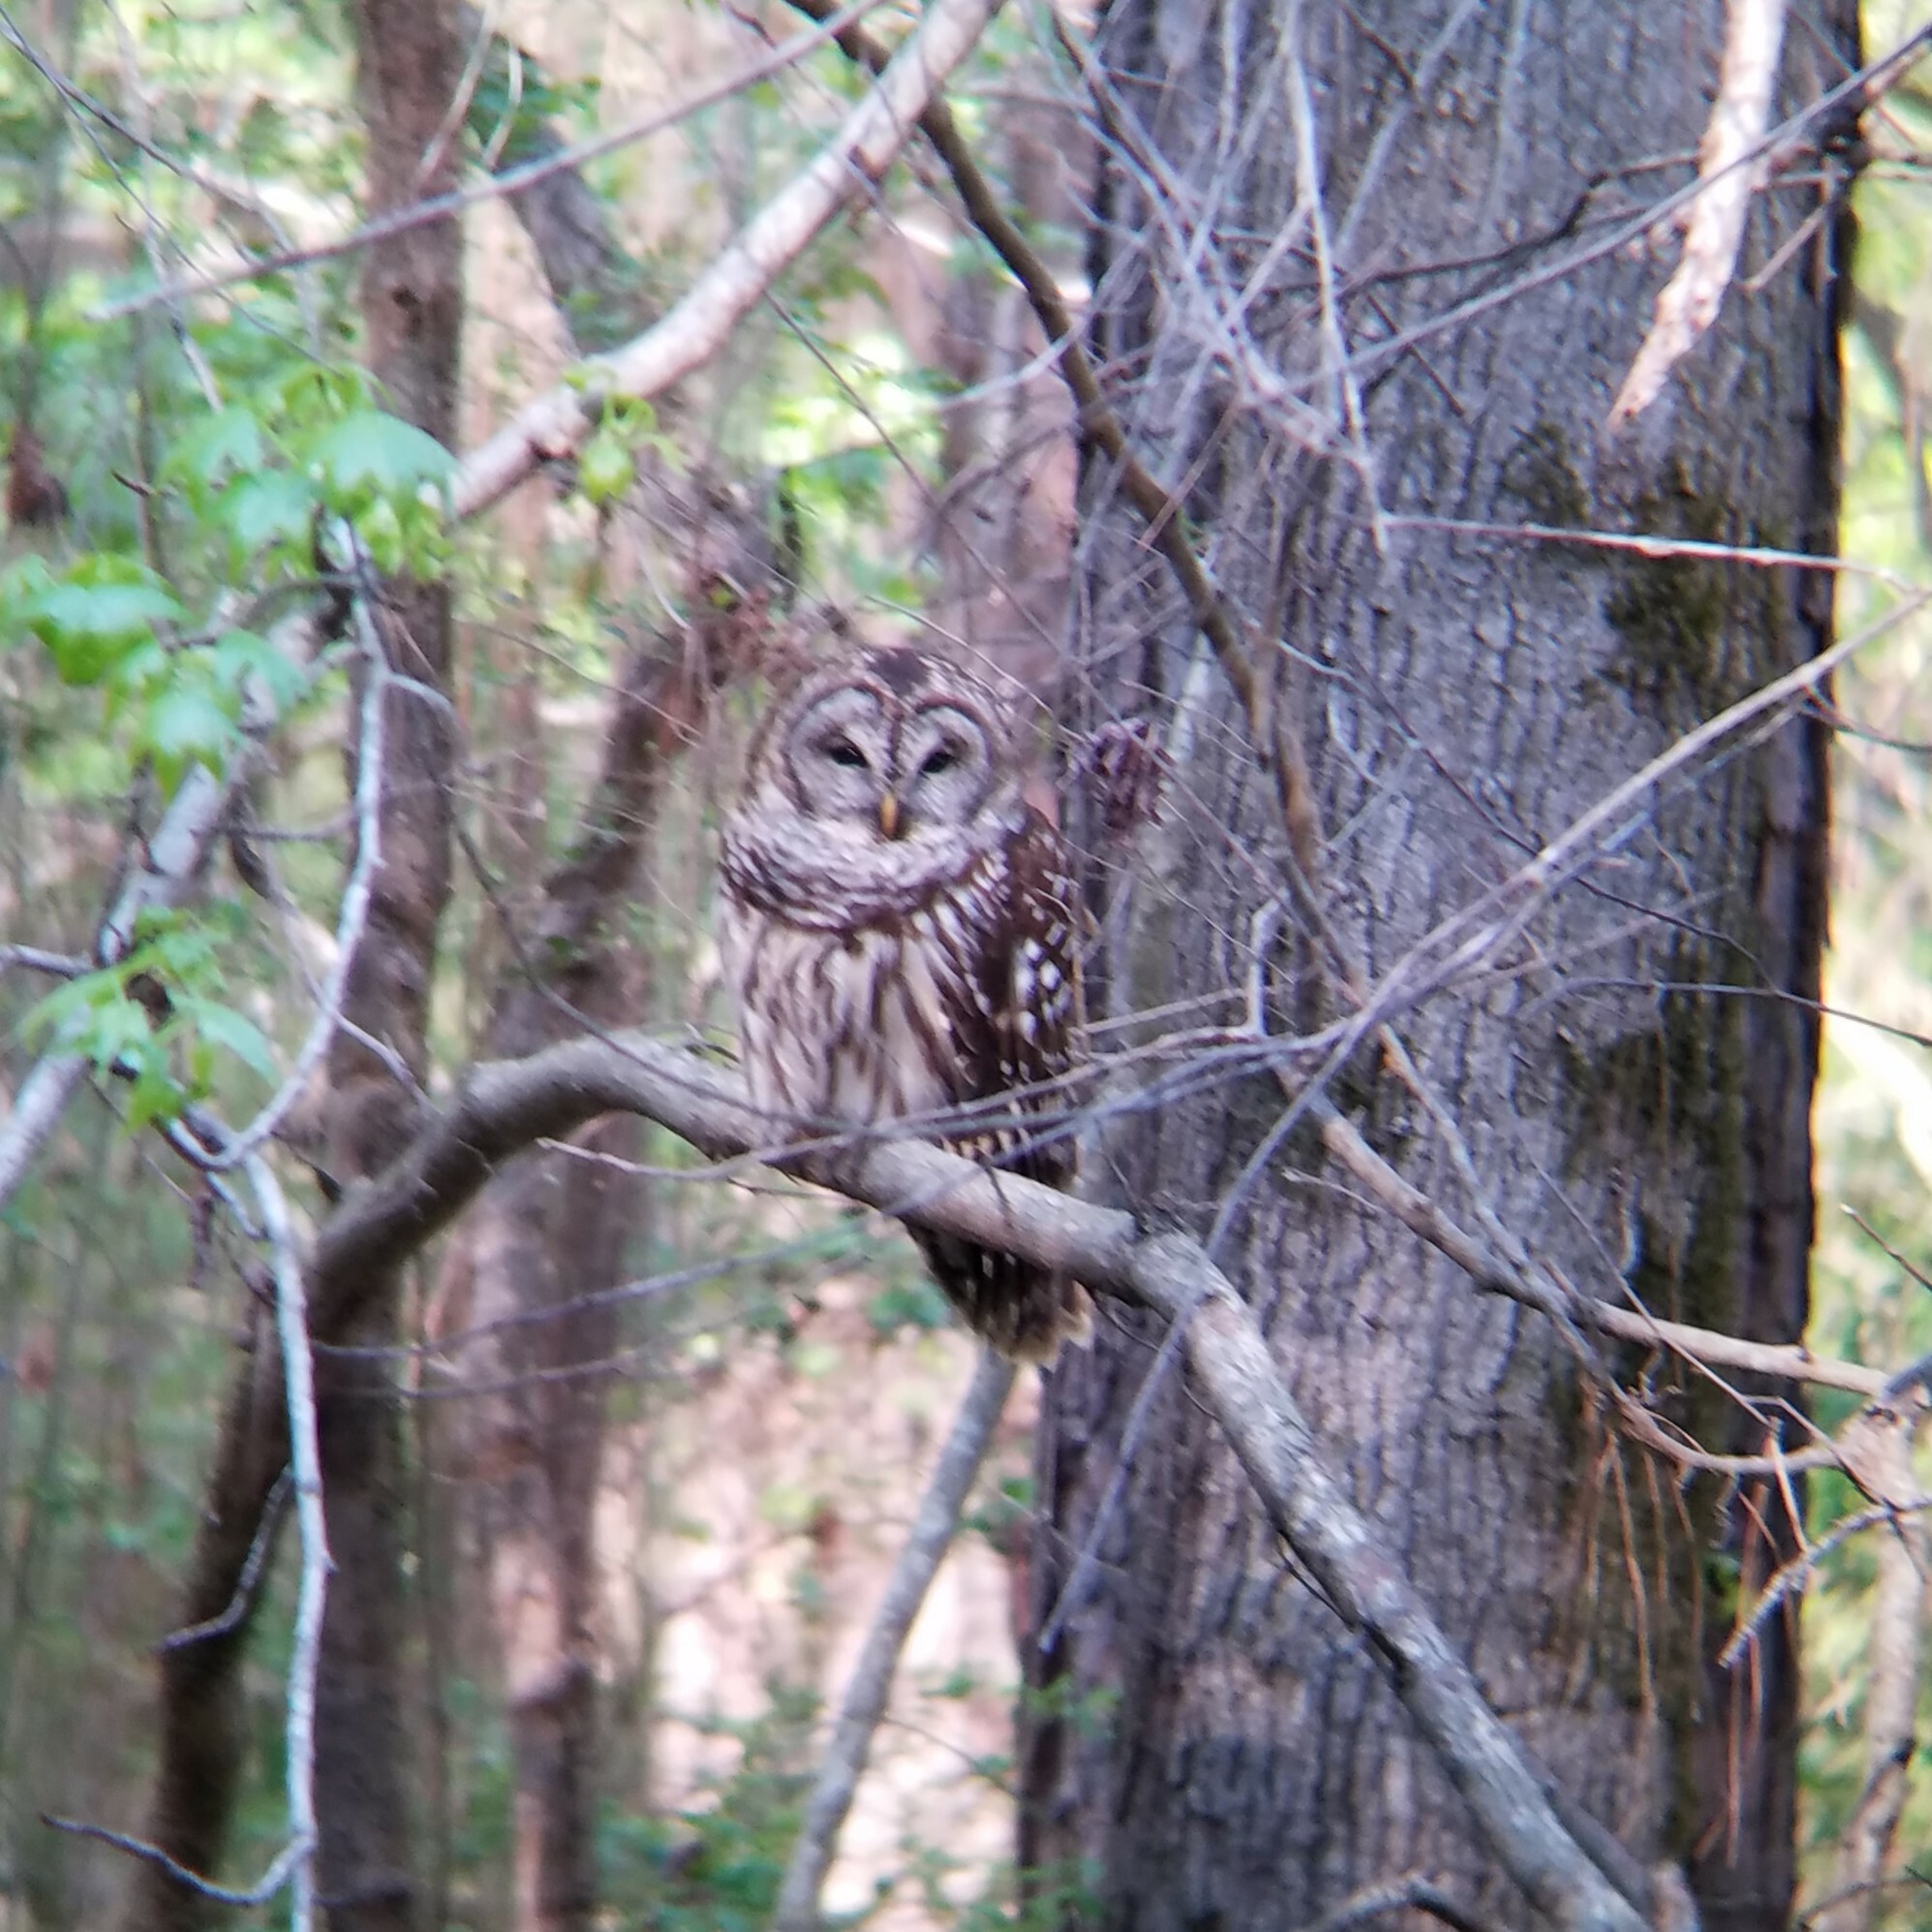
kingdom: Animalia
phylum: Chordata
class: Aves
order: Strigiformes
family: Strigidae
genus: Strix
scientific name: Strix varia
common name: Barred owl
